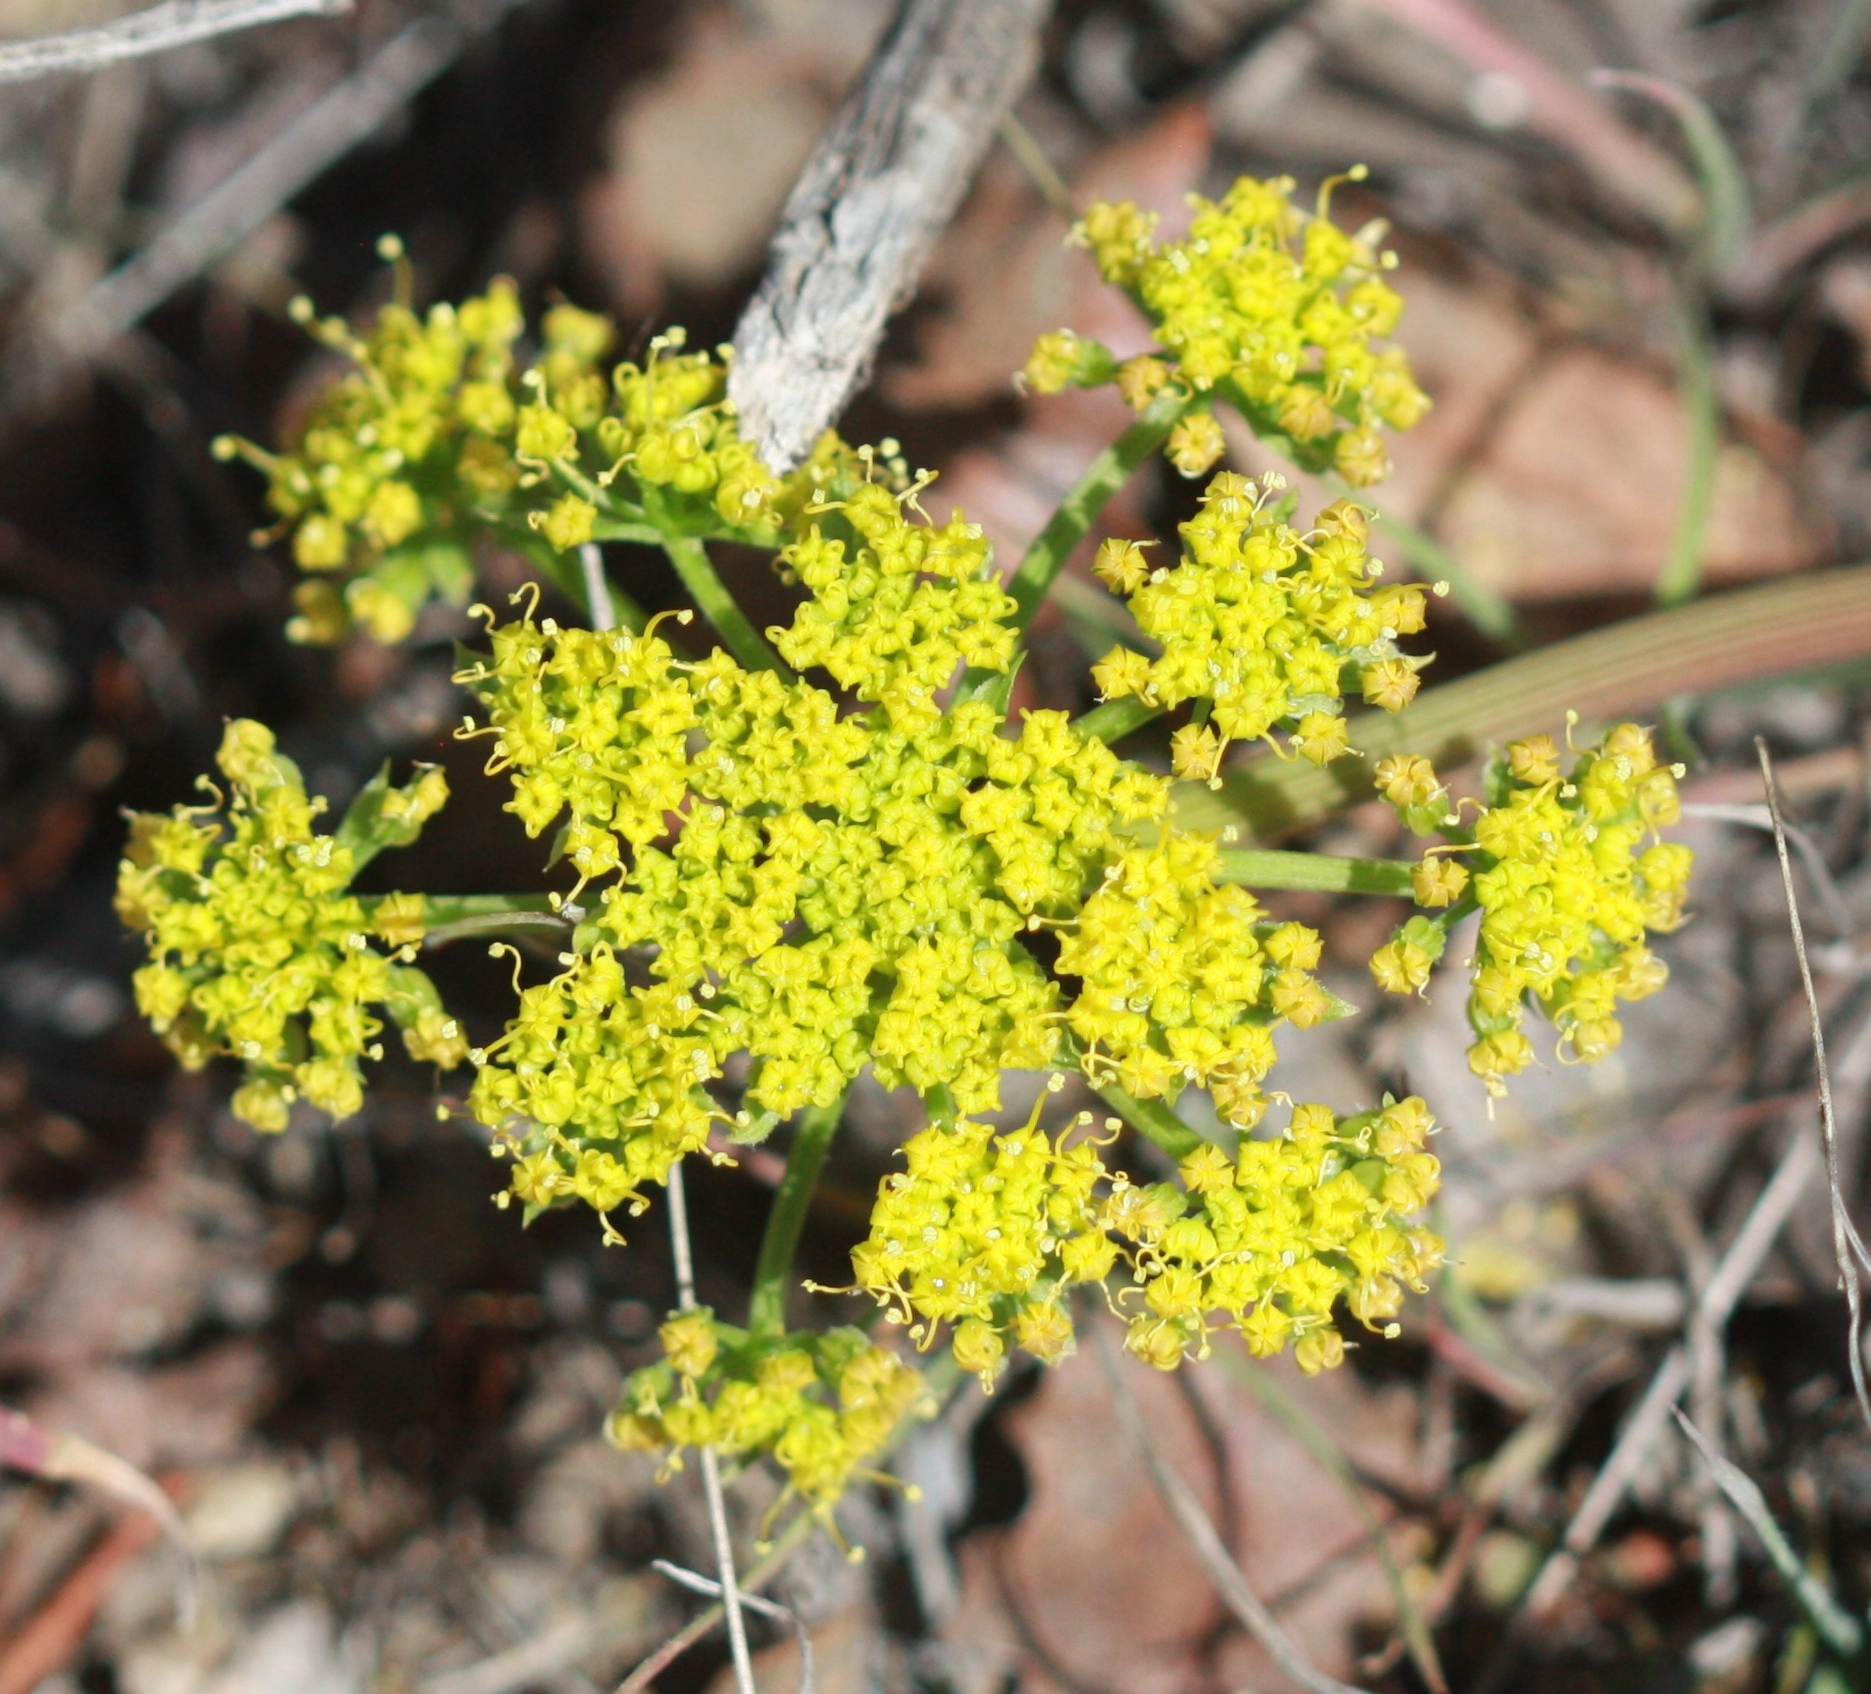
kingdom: Plantae
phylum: Tracheophyta
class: Magnoliopsida
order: Apiales
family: Apiaceae
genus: Lomatium
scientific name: Lomatium dasycarpum
